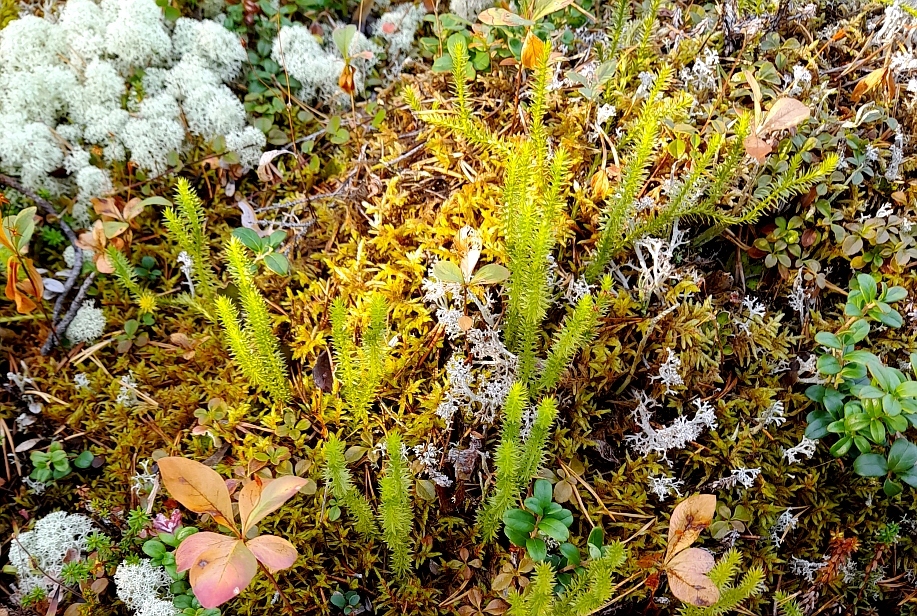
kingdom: Plantae
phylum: Tracheophyta
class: Lycopodiopsida
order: Lycopodiales
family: Lycopodiaceae
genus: Spinulum
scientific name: Spinulum annotinum
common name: Interrupted club-moss
